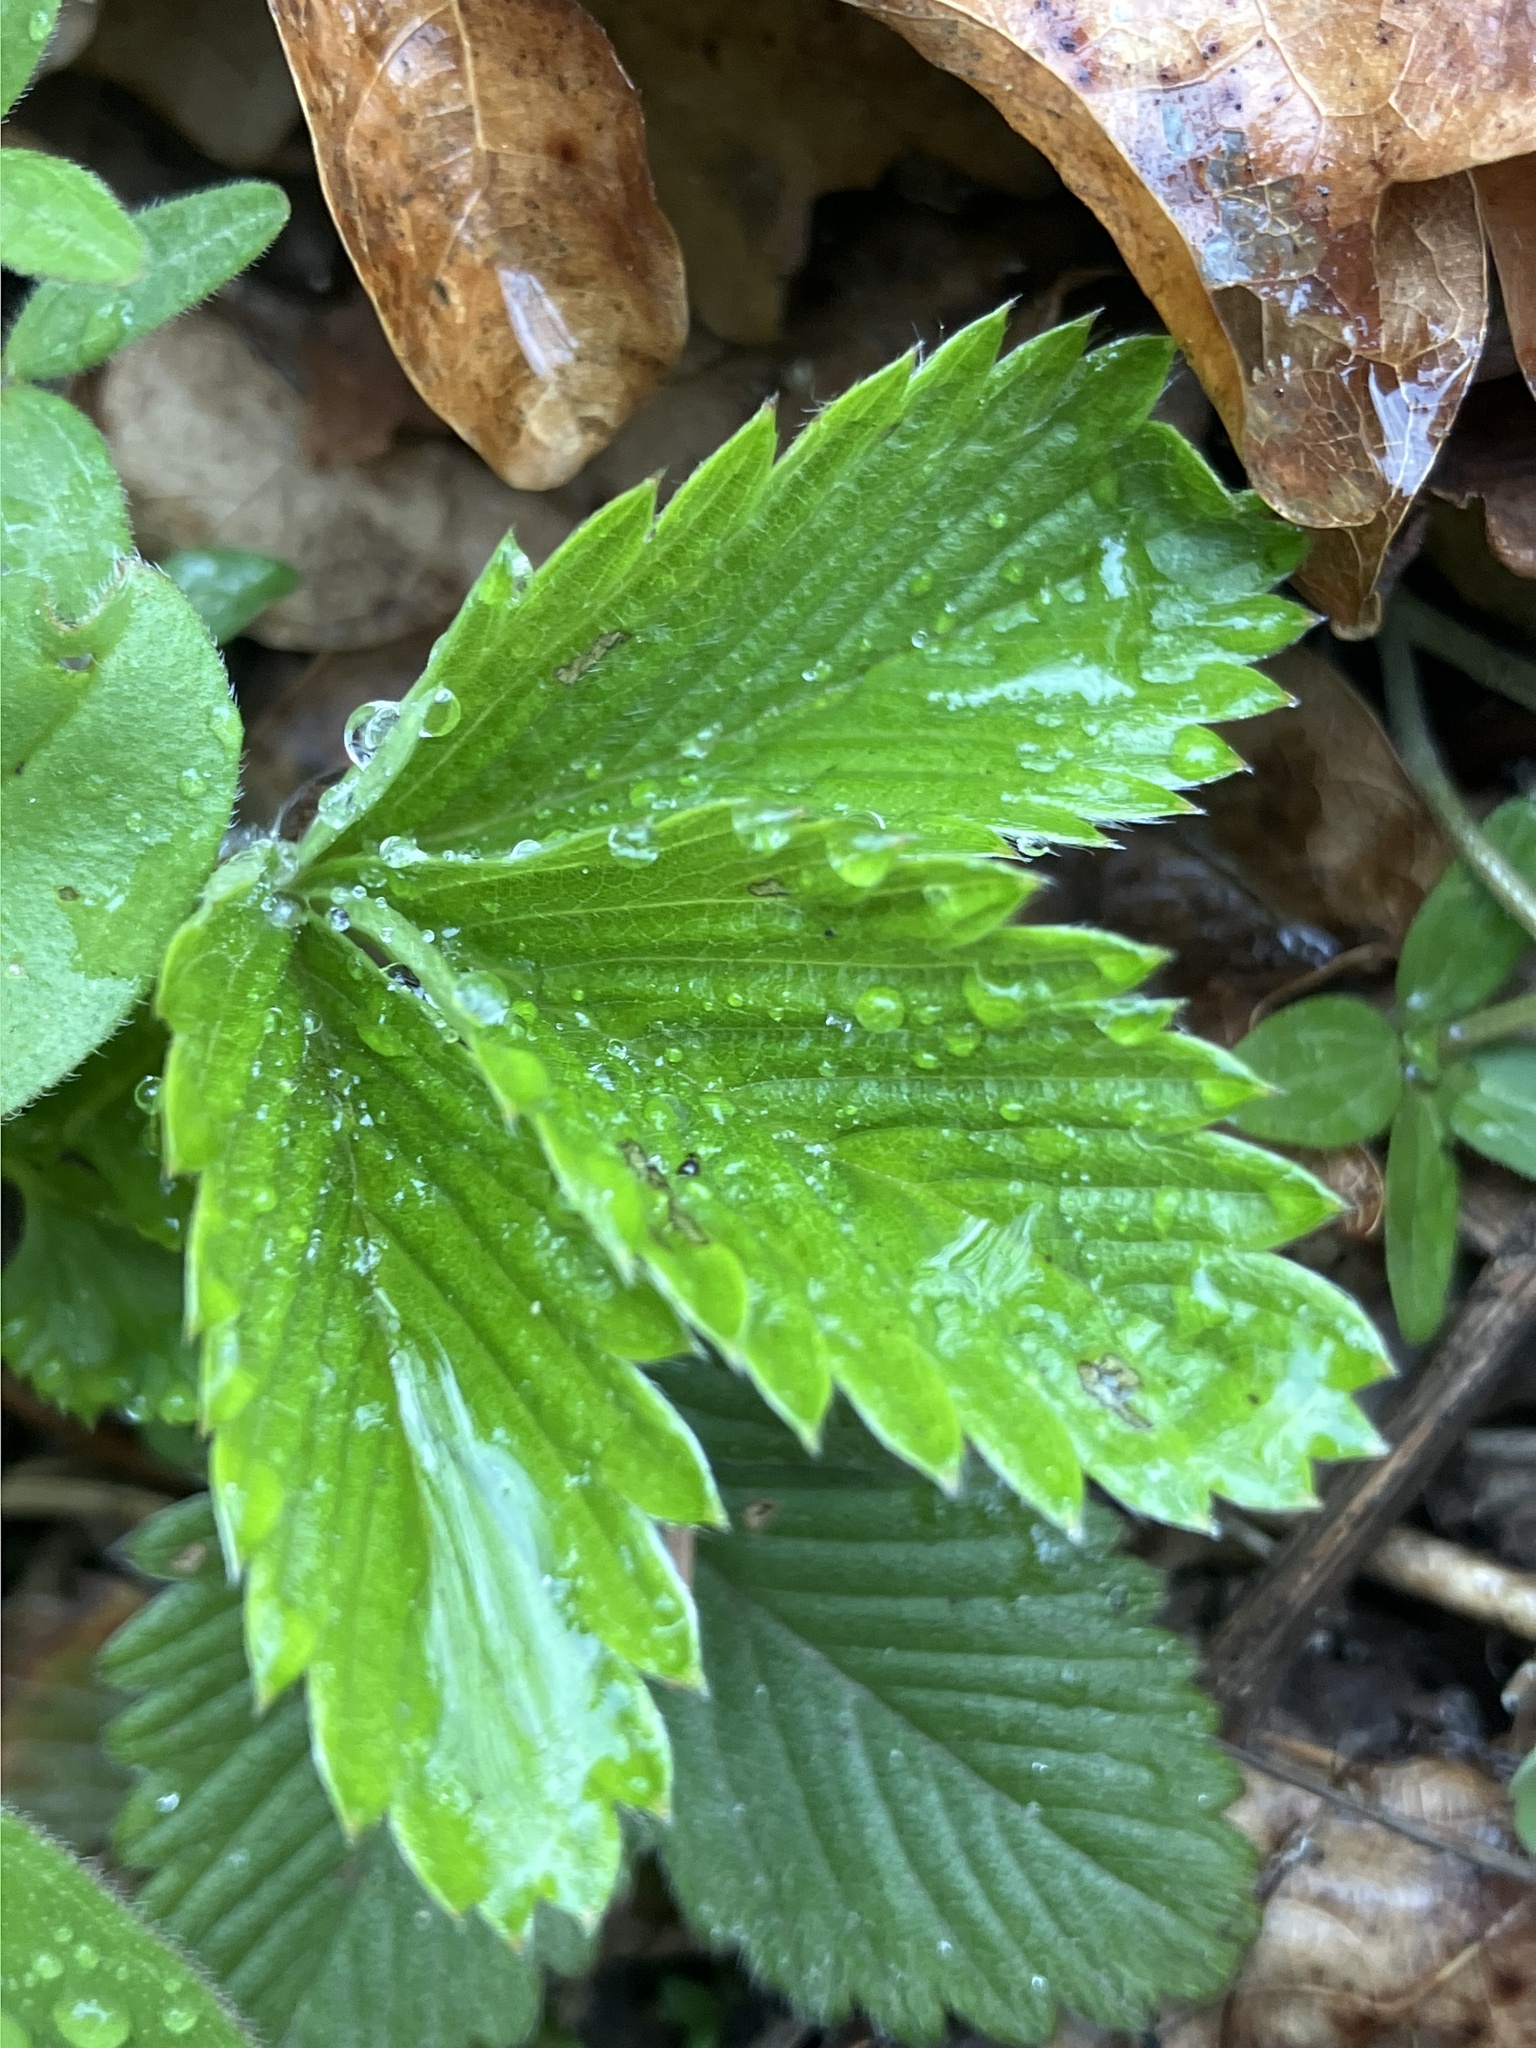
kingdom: Plantae
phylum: Tracheophyta
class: Magnoliopsida
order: Rosales
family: Rosaceae
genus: Fragaria
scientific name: Fragaria vesca
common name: Wild strawberry
